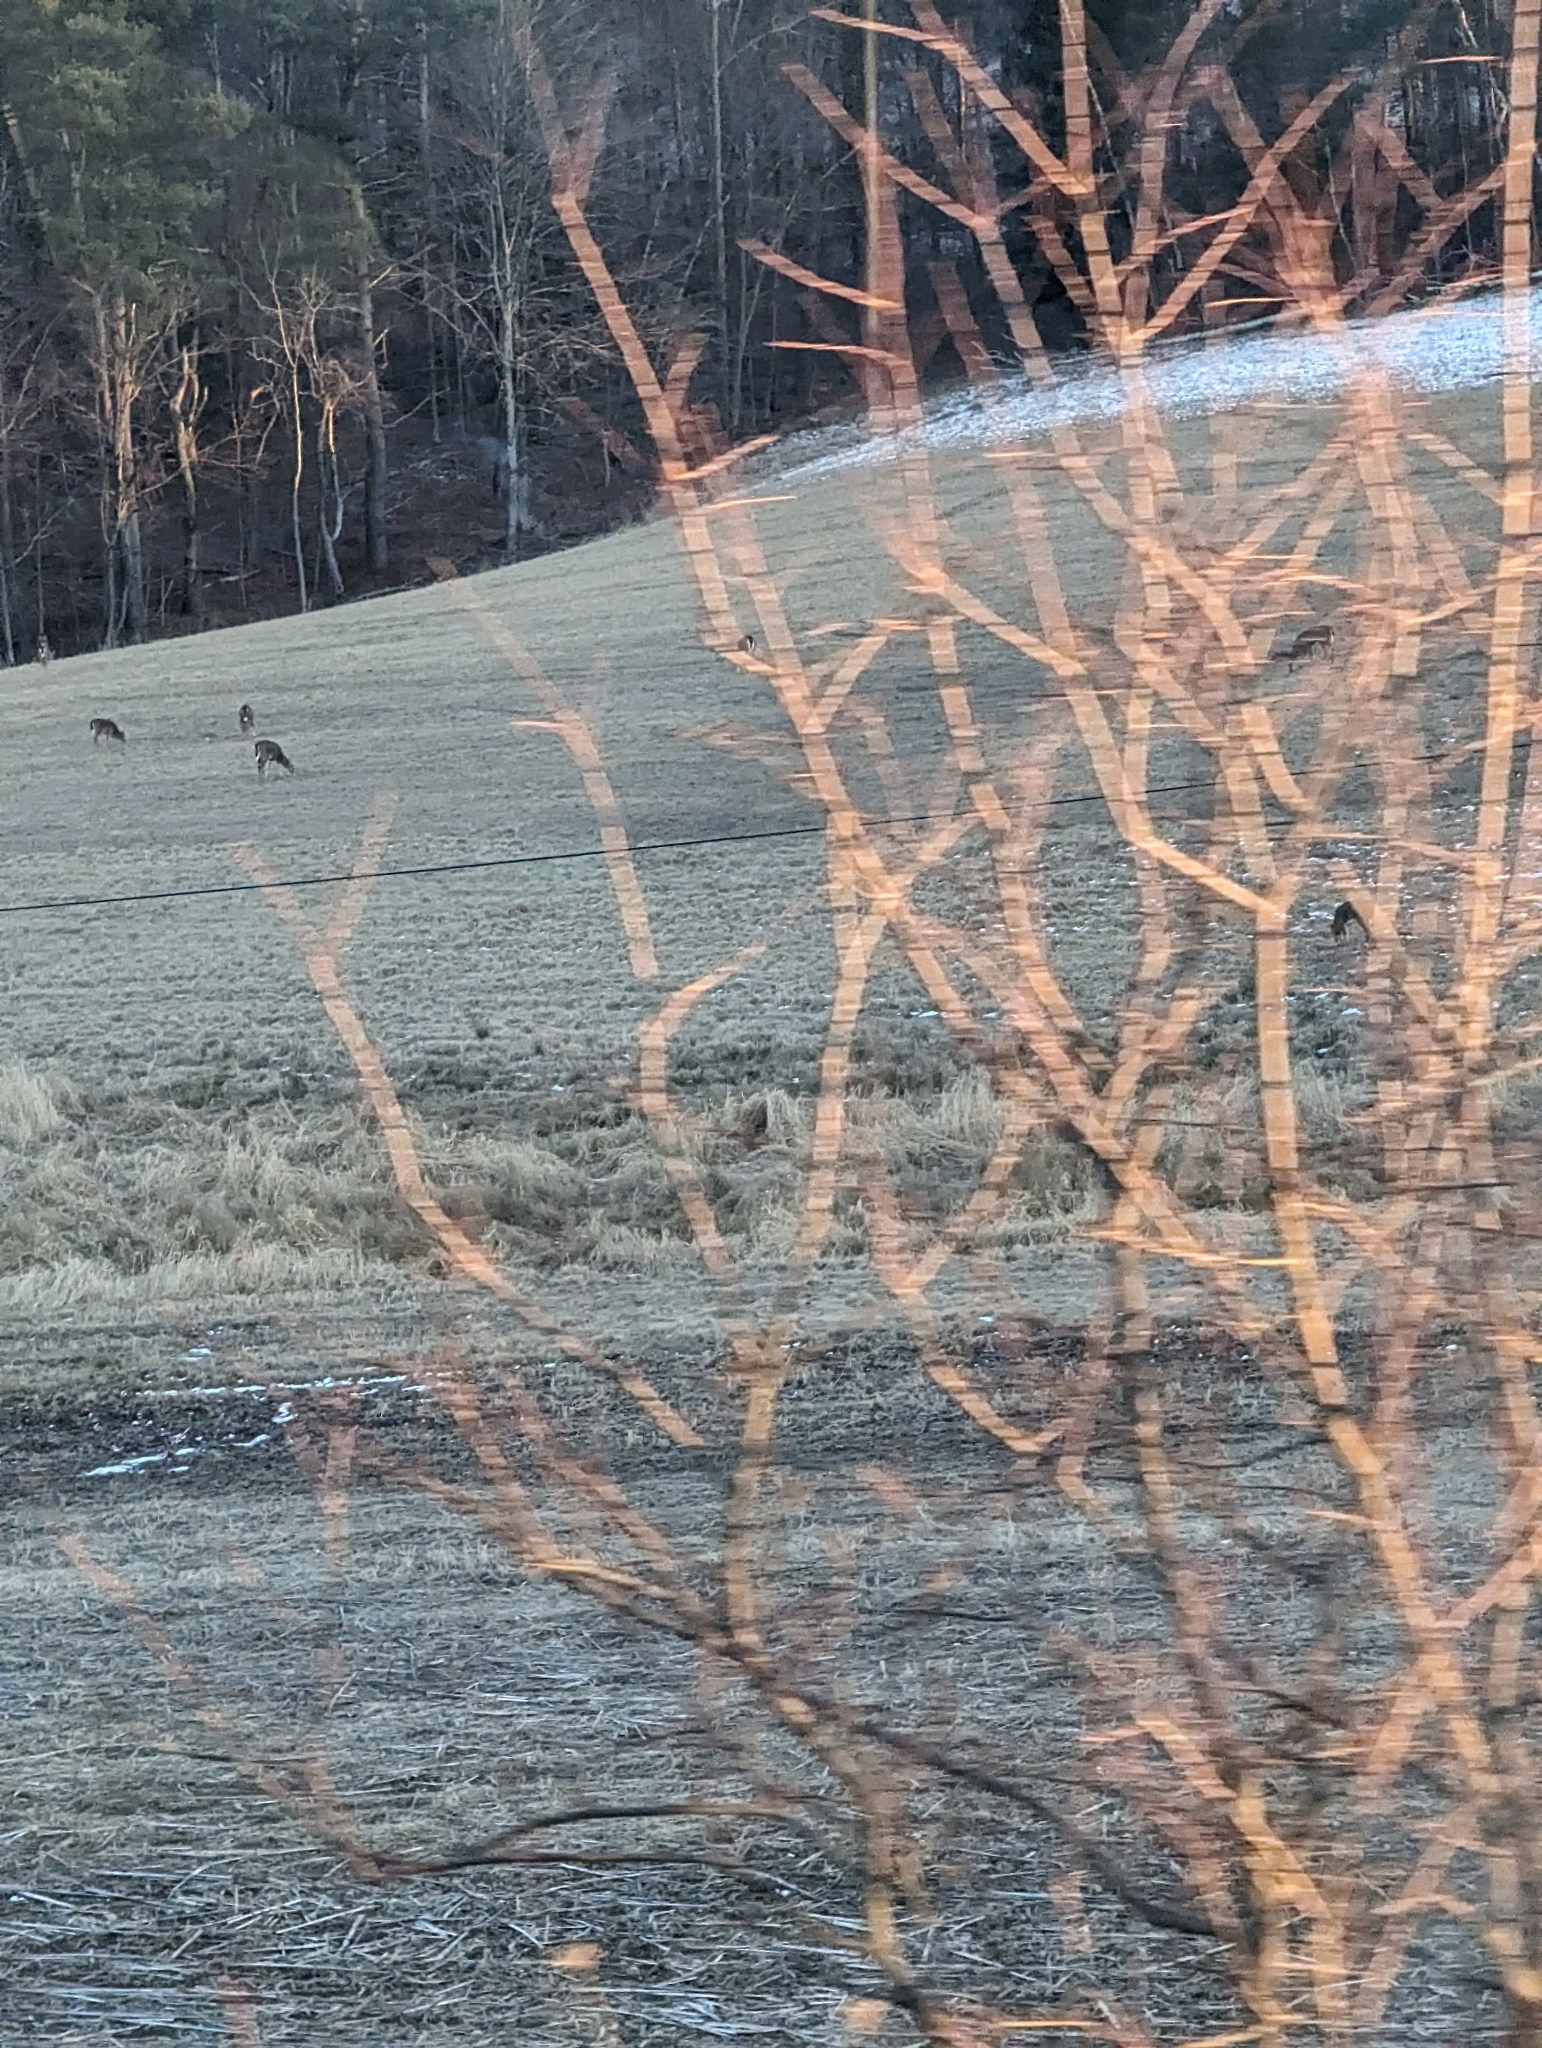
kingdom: Animalia
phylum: Chordata
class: Mammalia
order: Artiodactyla
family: Cervidae
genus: Odocoileus
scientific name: Odocoileus virginianus
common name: White-tailed deer
